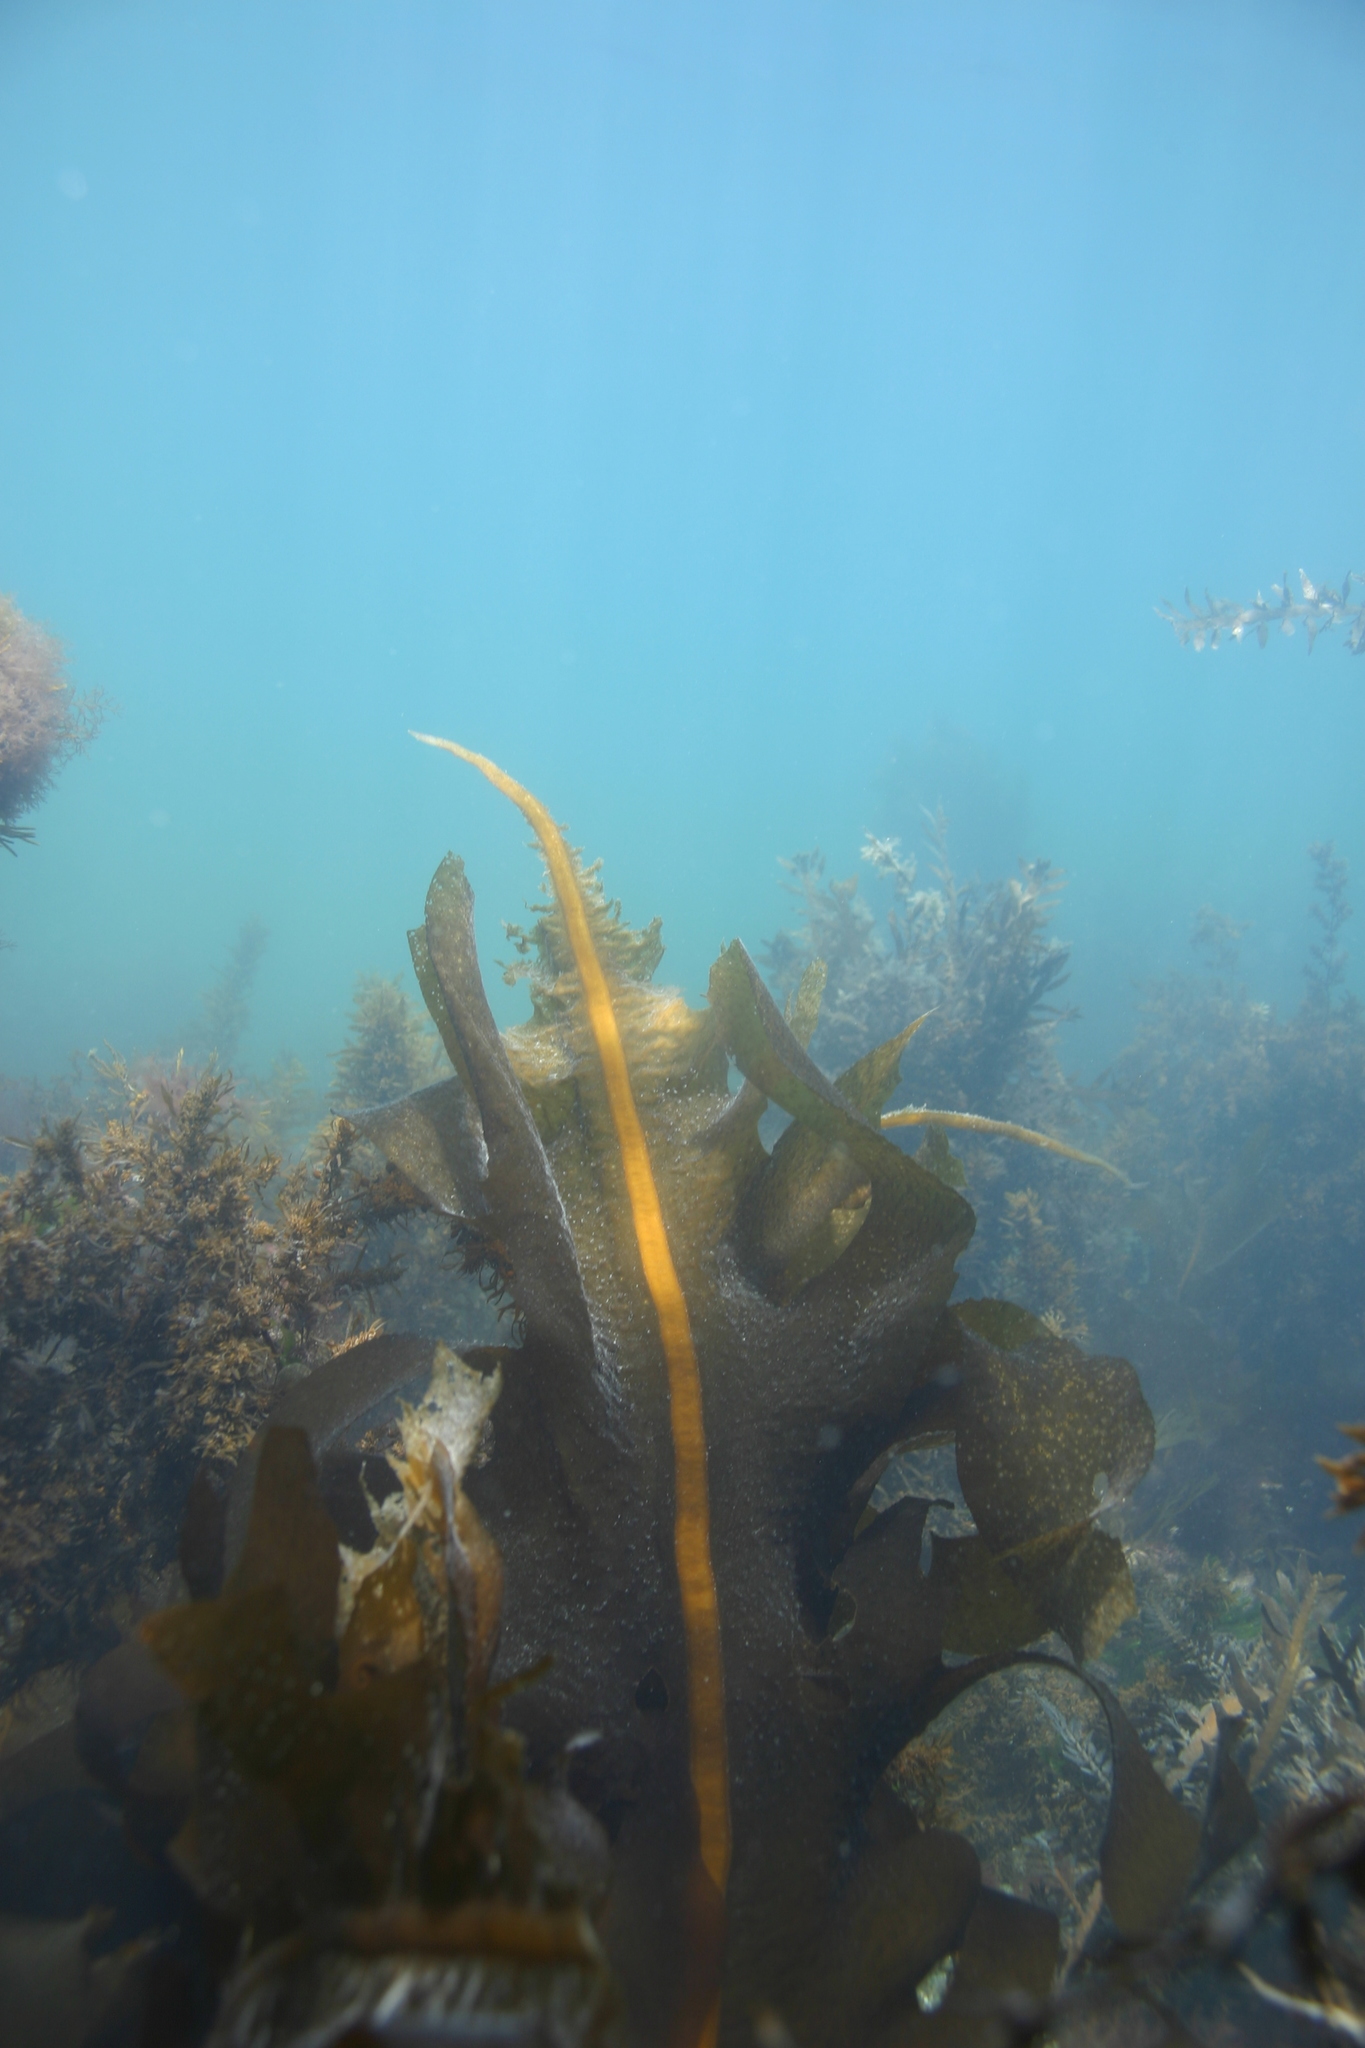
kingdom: Chromista
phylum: Ochrophyta
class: Phaeophyceae
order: Laminariales
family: Alariaceae
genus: Undaria
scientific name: Undaria pinnatifida
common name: Asian kelp
